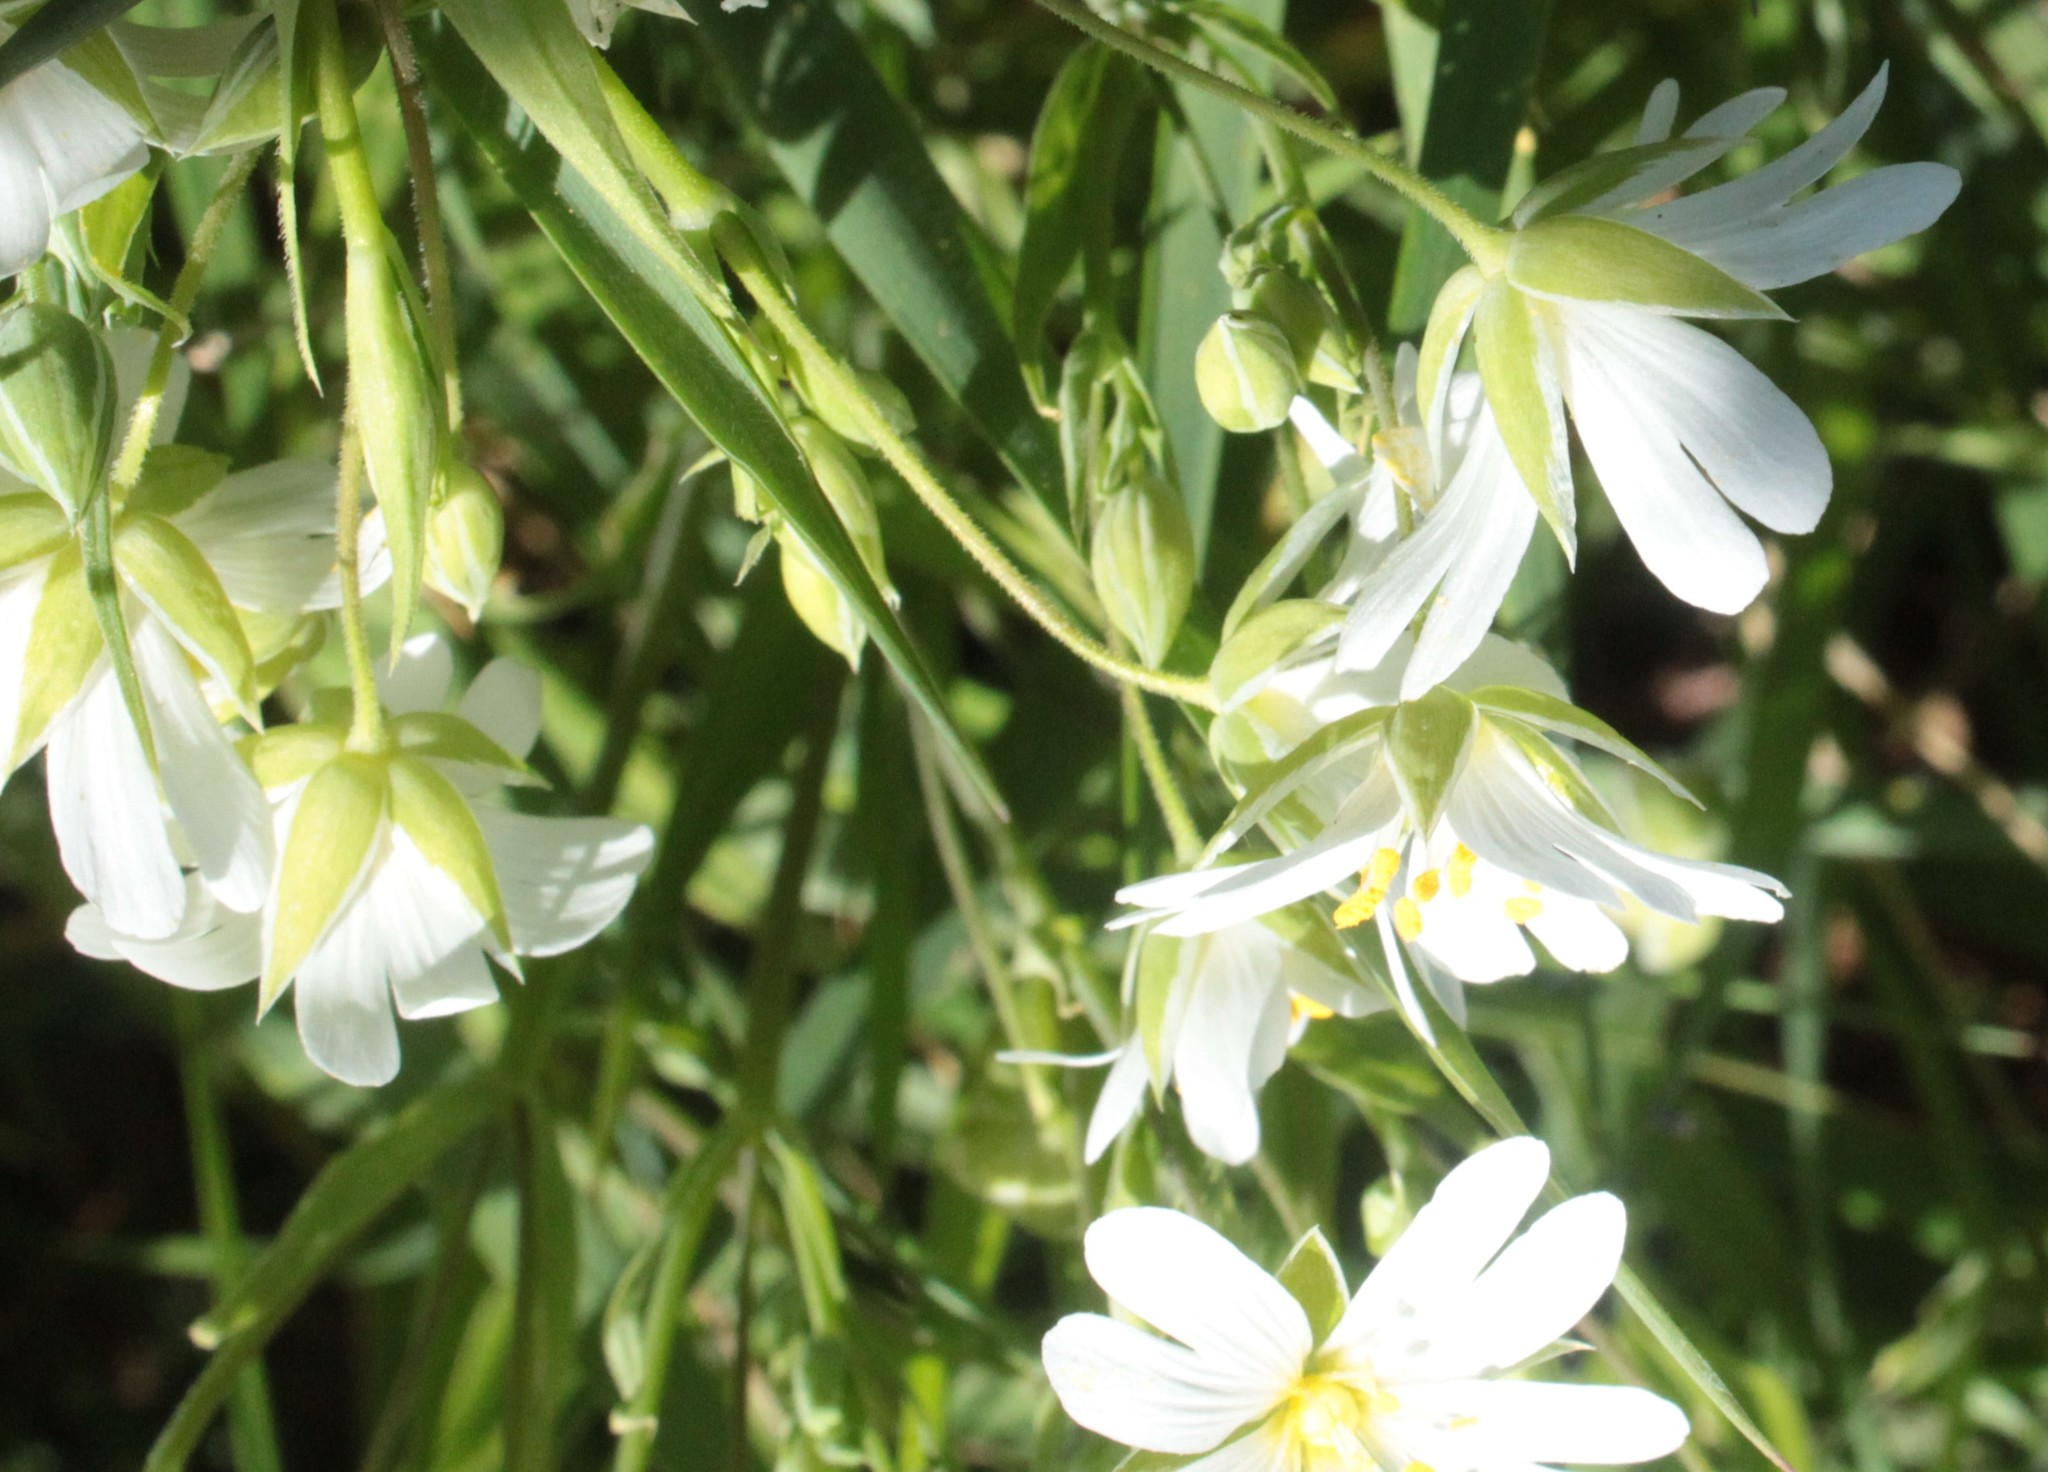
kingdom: Plantae
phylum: Tracheophyta
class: Magnoliopsida
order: Caryophyllales
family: Caryophyllaceae
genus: Rabelera
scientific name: Rabelera holostea
